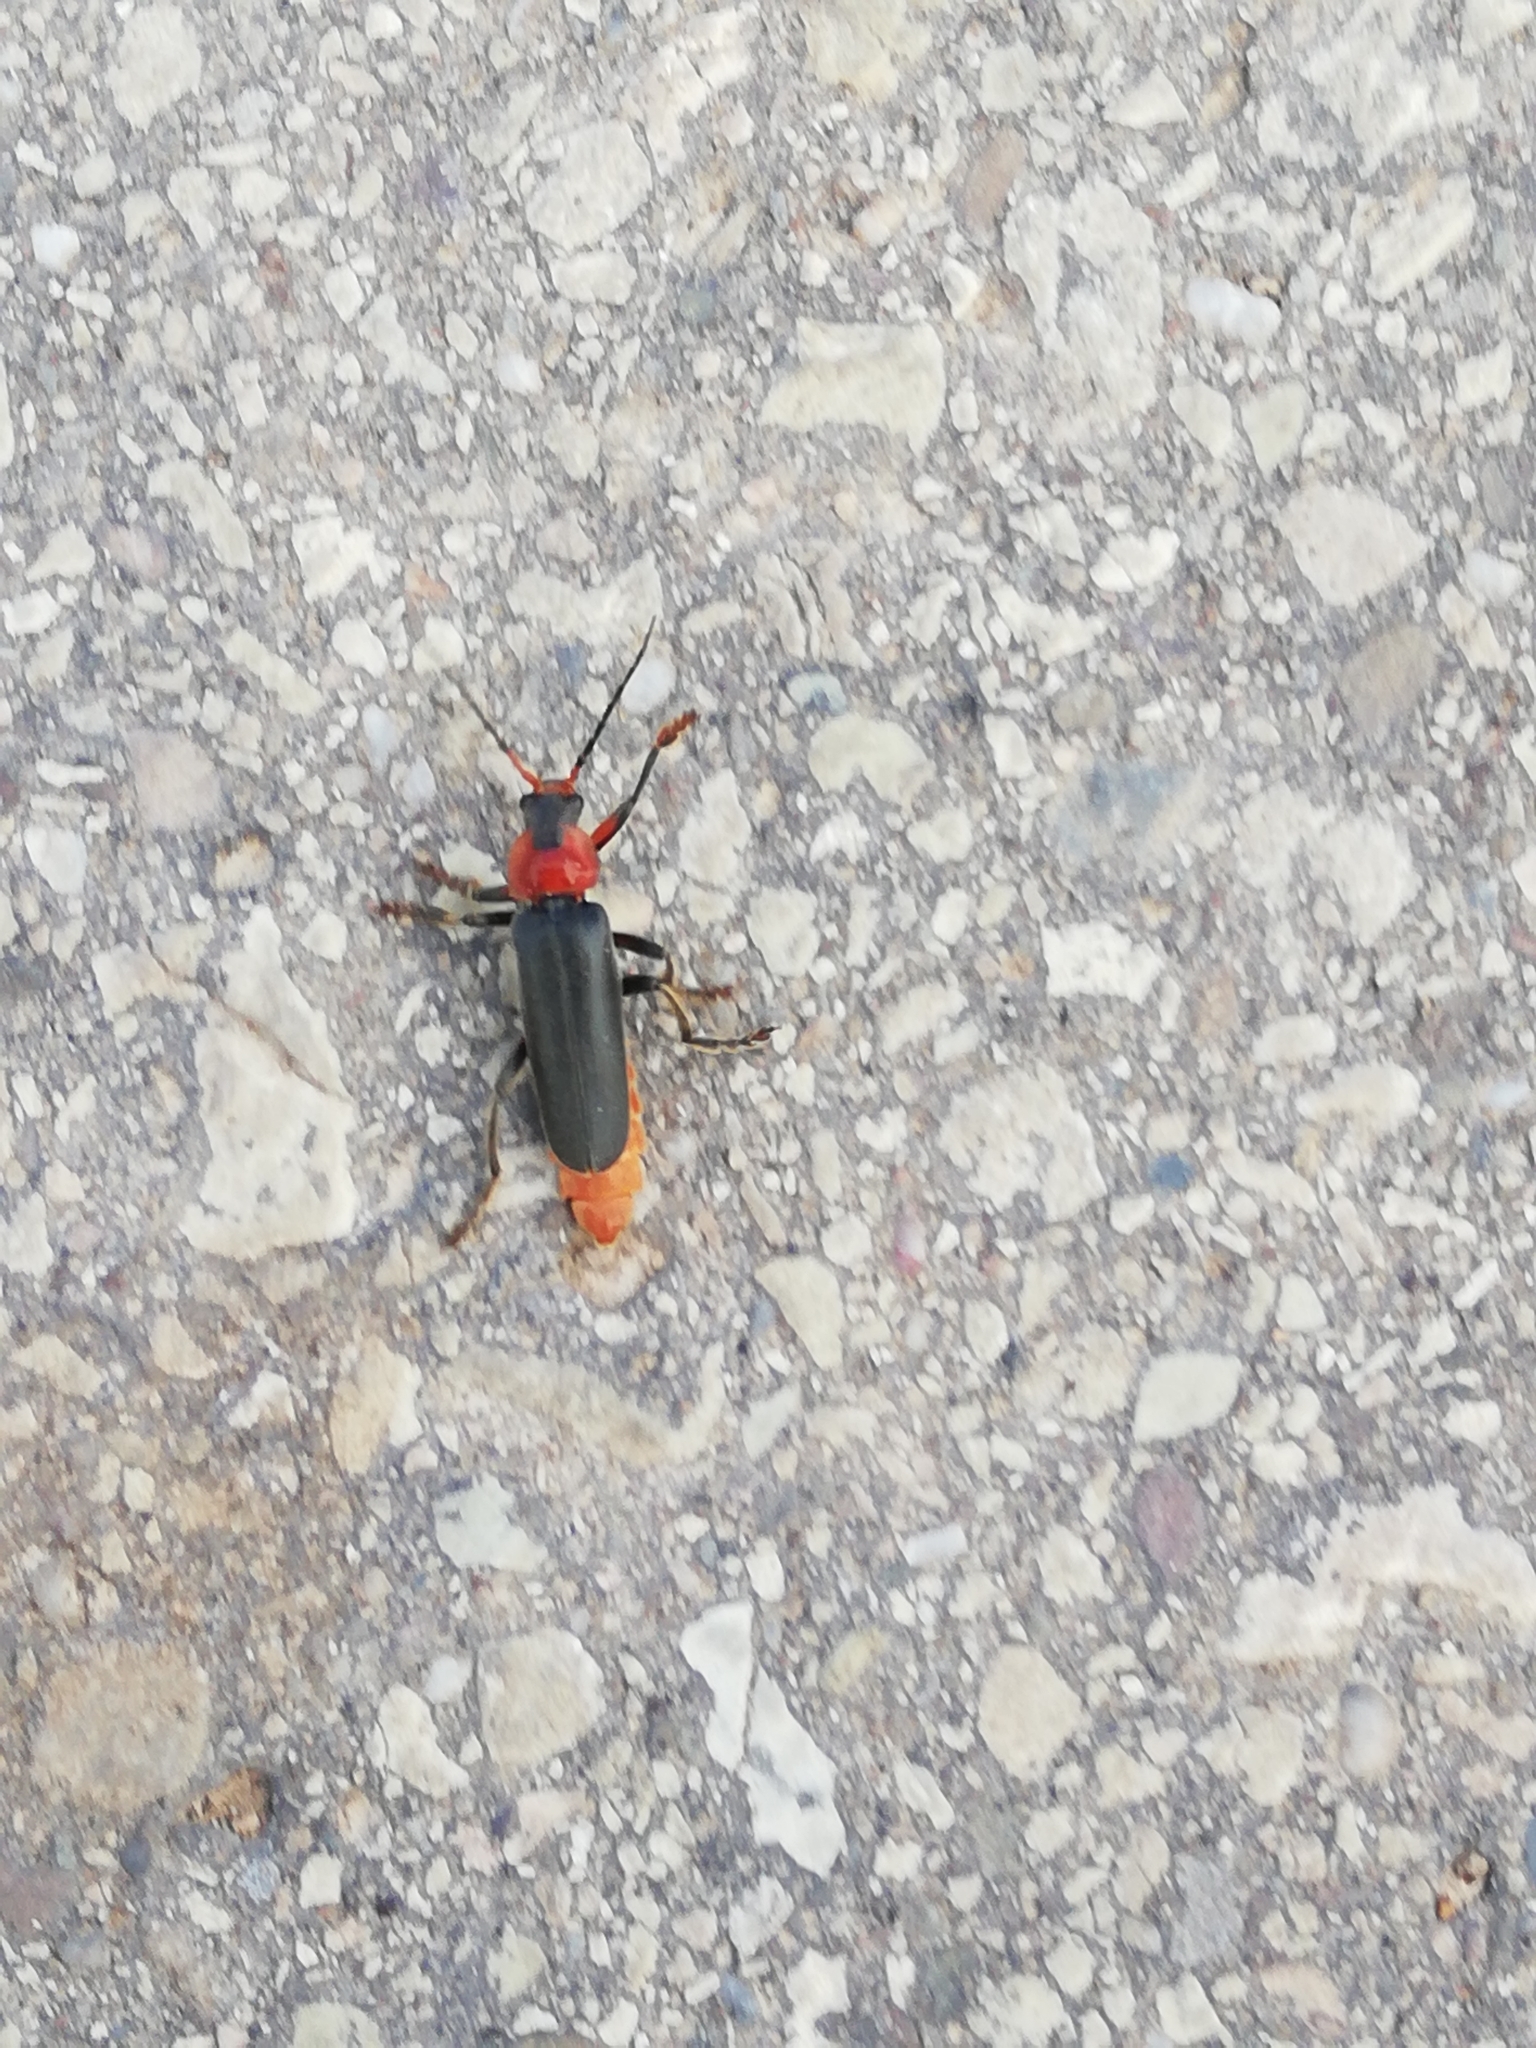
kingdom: Animalia
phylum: Arthropoda
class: Insecta
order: Coleoptera
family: Cantharidae
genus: Cantharis
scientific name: Cantharis fusca
